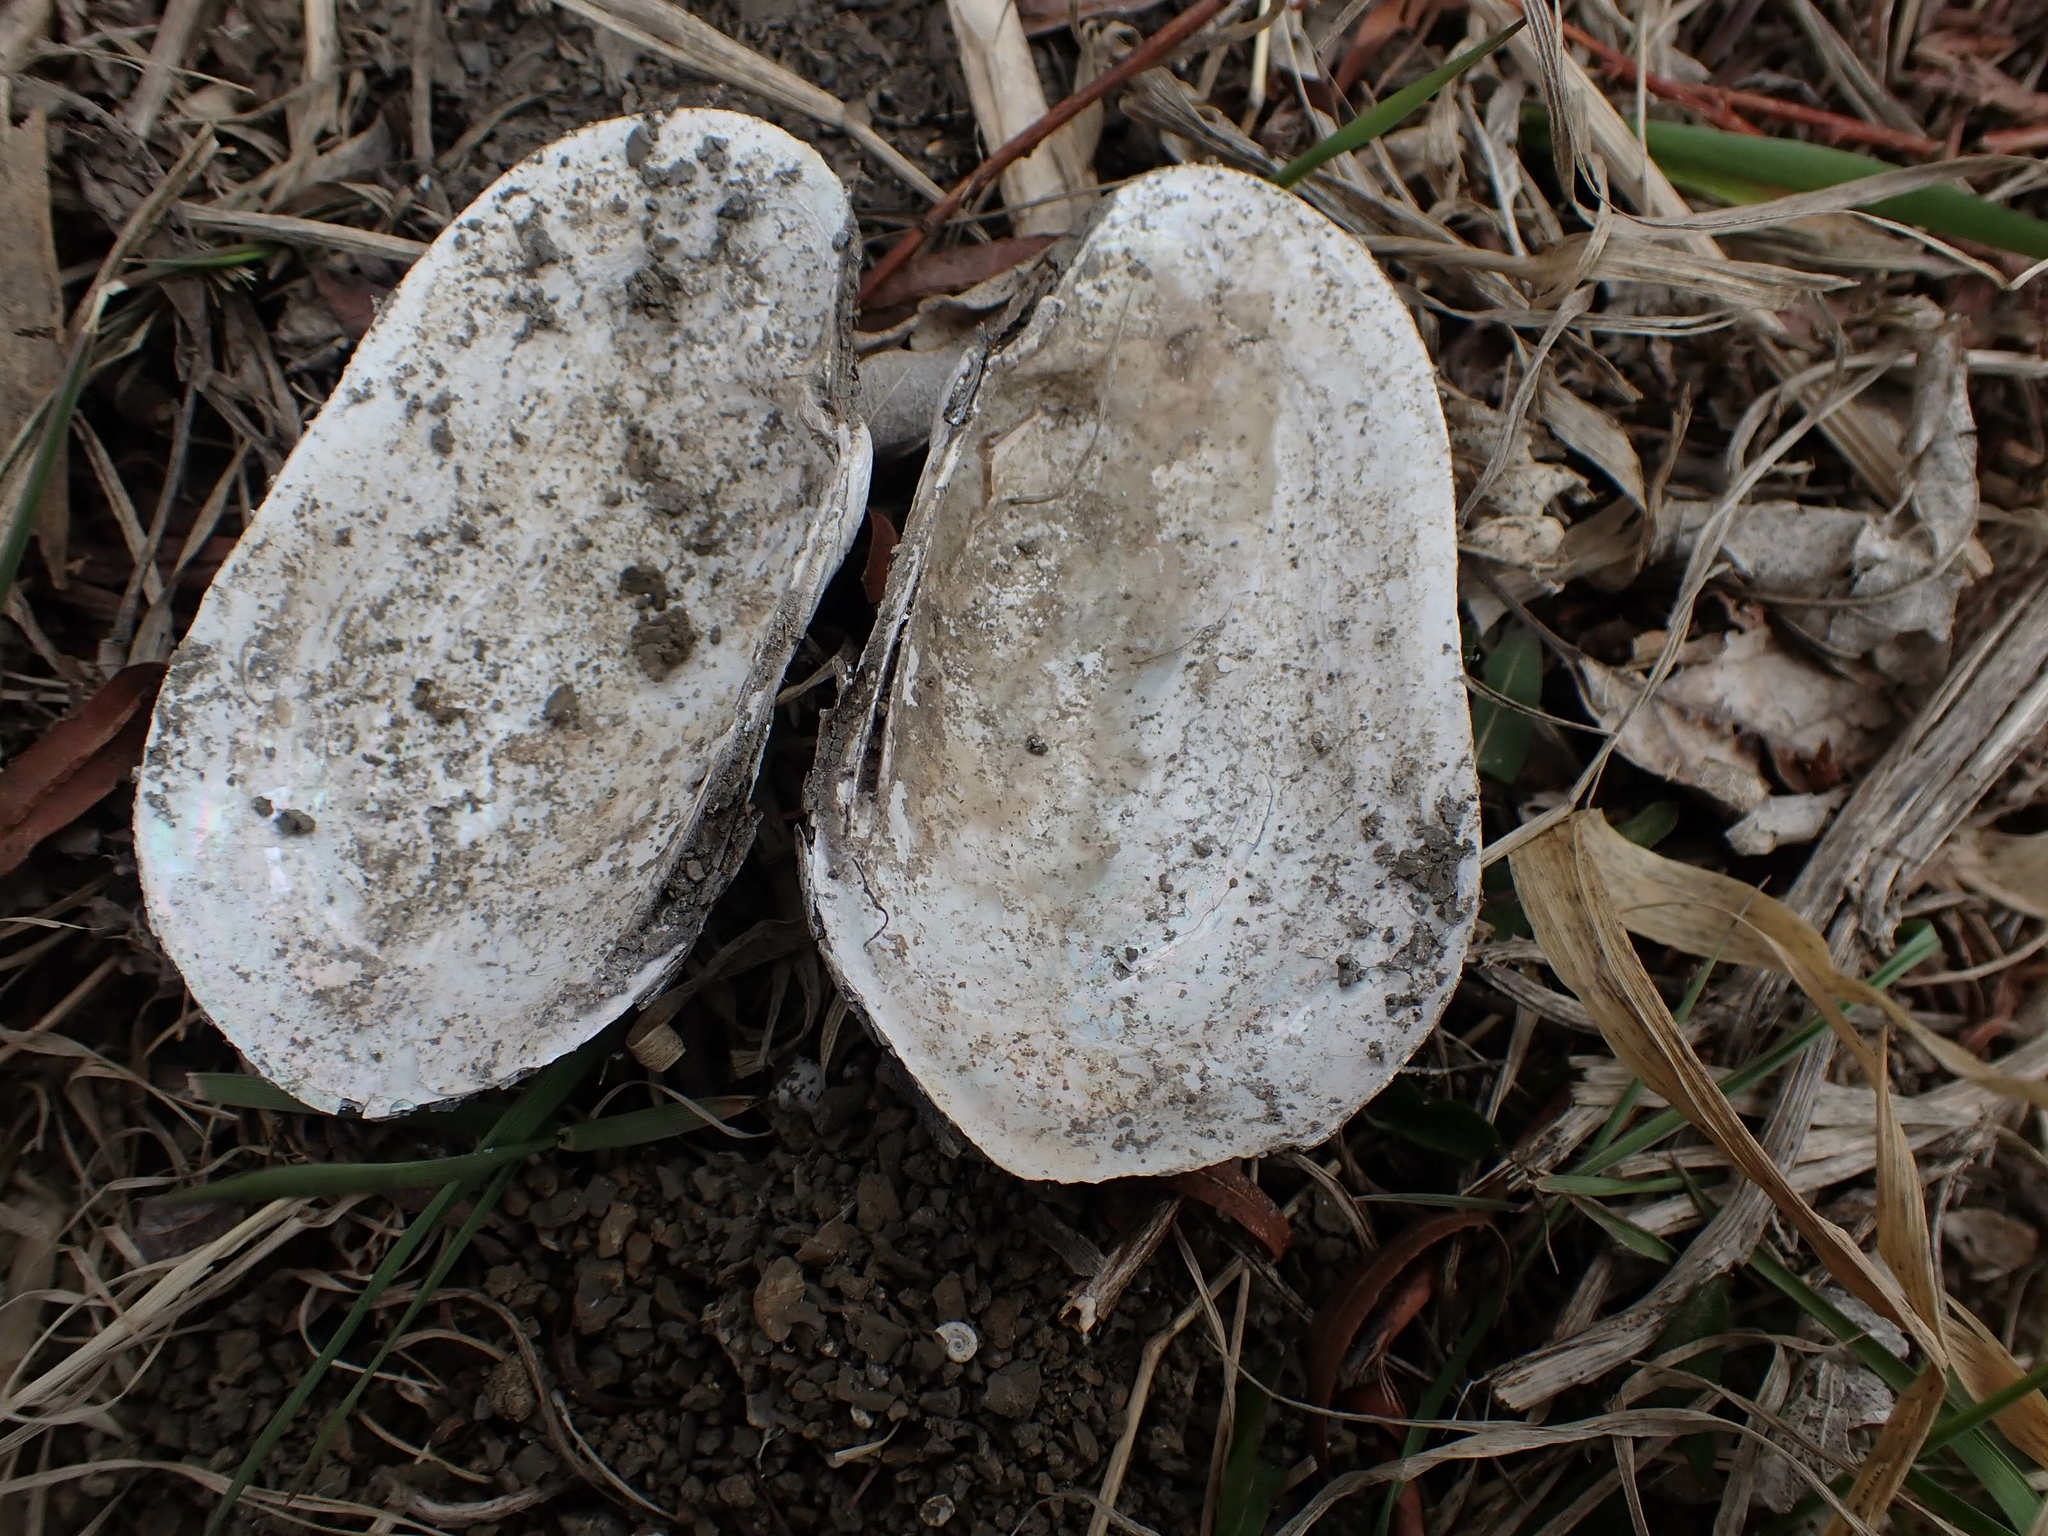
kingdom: Animalia
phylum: Mollusca
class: Bivalvia
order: Unionida
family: Unionidae
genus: Lampsilis
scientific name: Lampsilis siliquoidea
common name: Fatmucket
